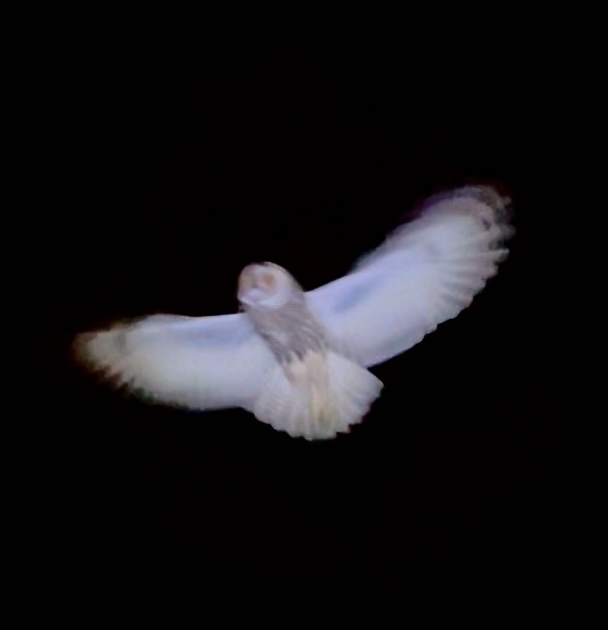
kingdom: Animalia
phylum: Chordata
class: Aves
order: Strigiformes
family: Strigidae
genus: Asio
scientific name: Asio otus
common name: Long-eared owl
